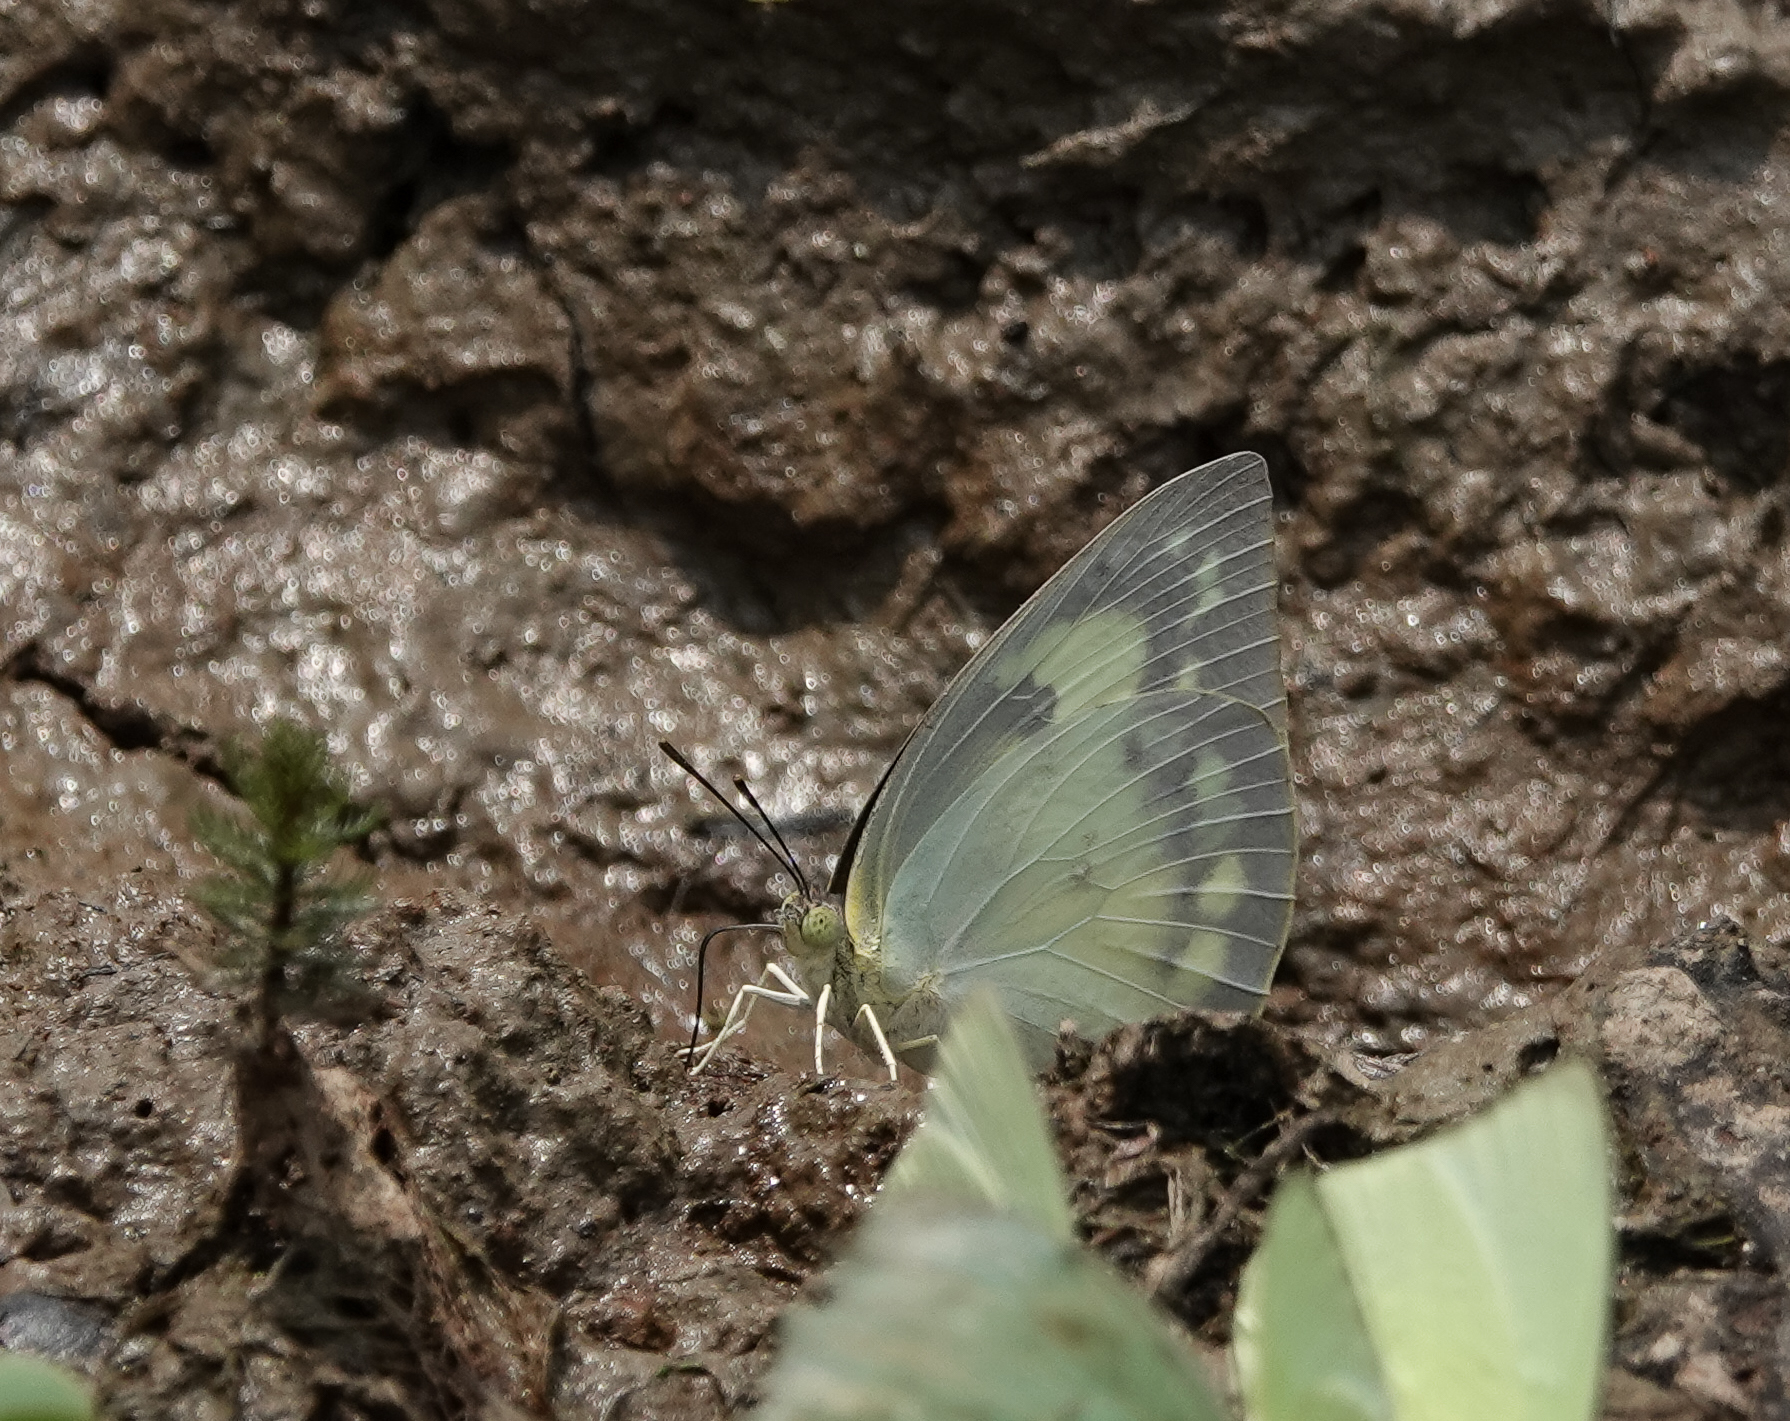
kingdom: Animalia
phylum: Arthropoda
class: Insecta
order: Lepidoptera
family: Pieridae
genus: Catopsilia
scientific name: Catopsilia pomona
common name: Common emigrant
